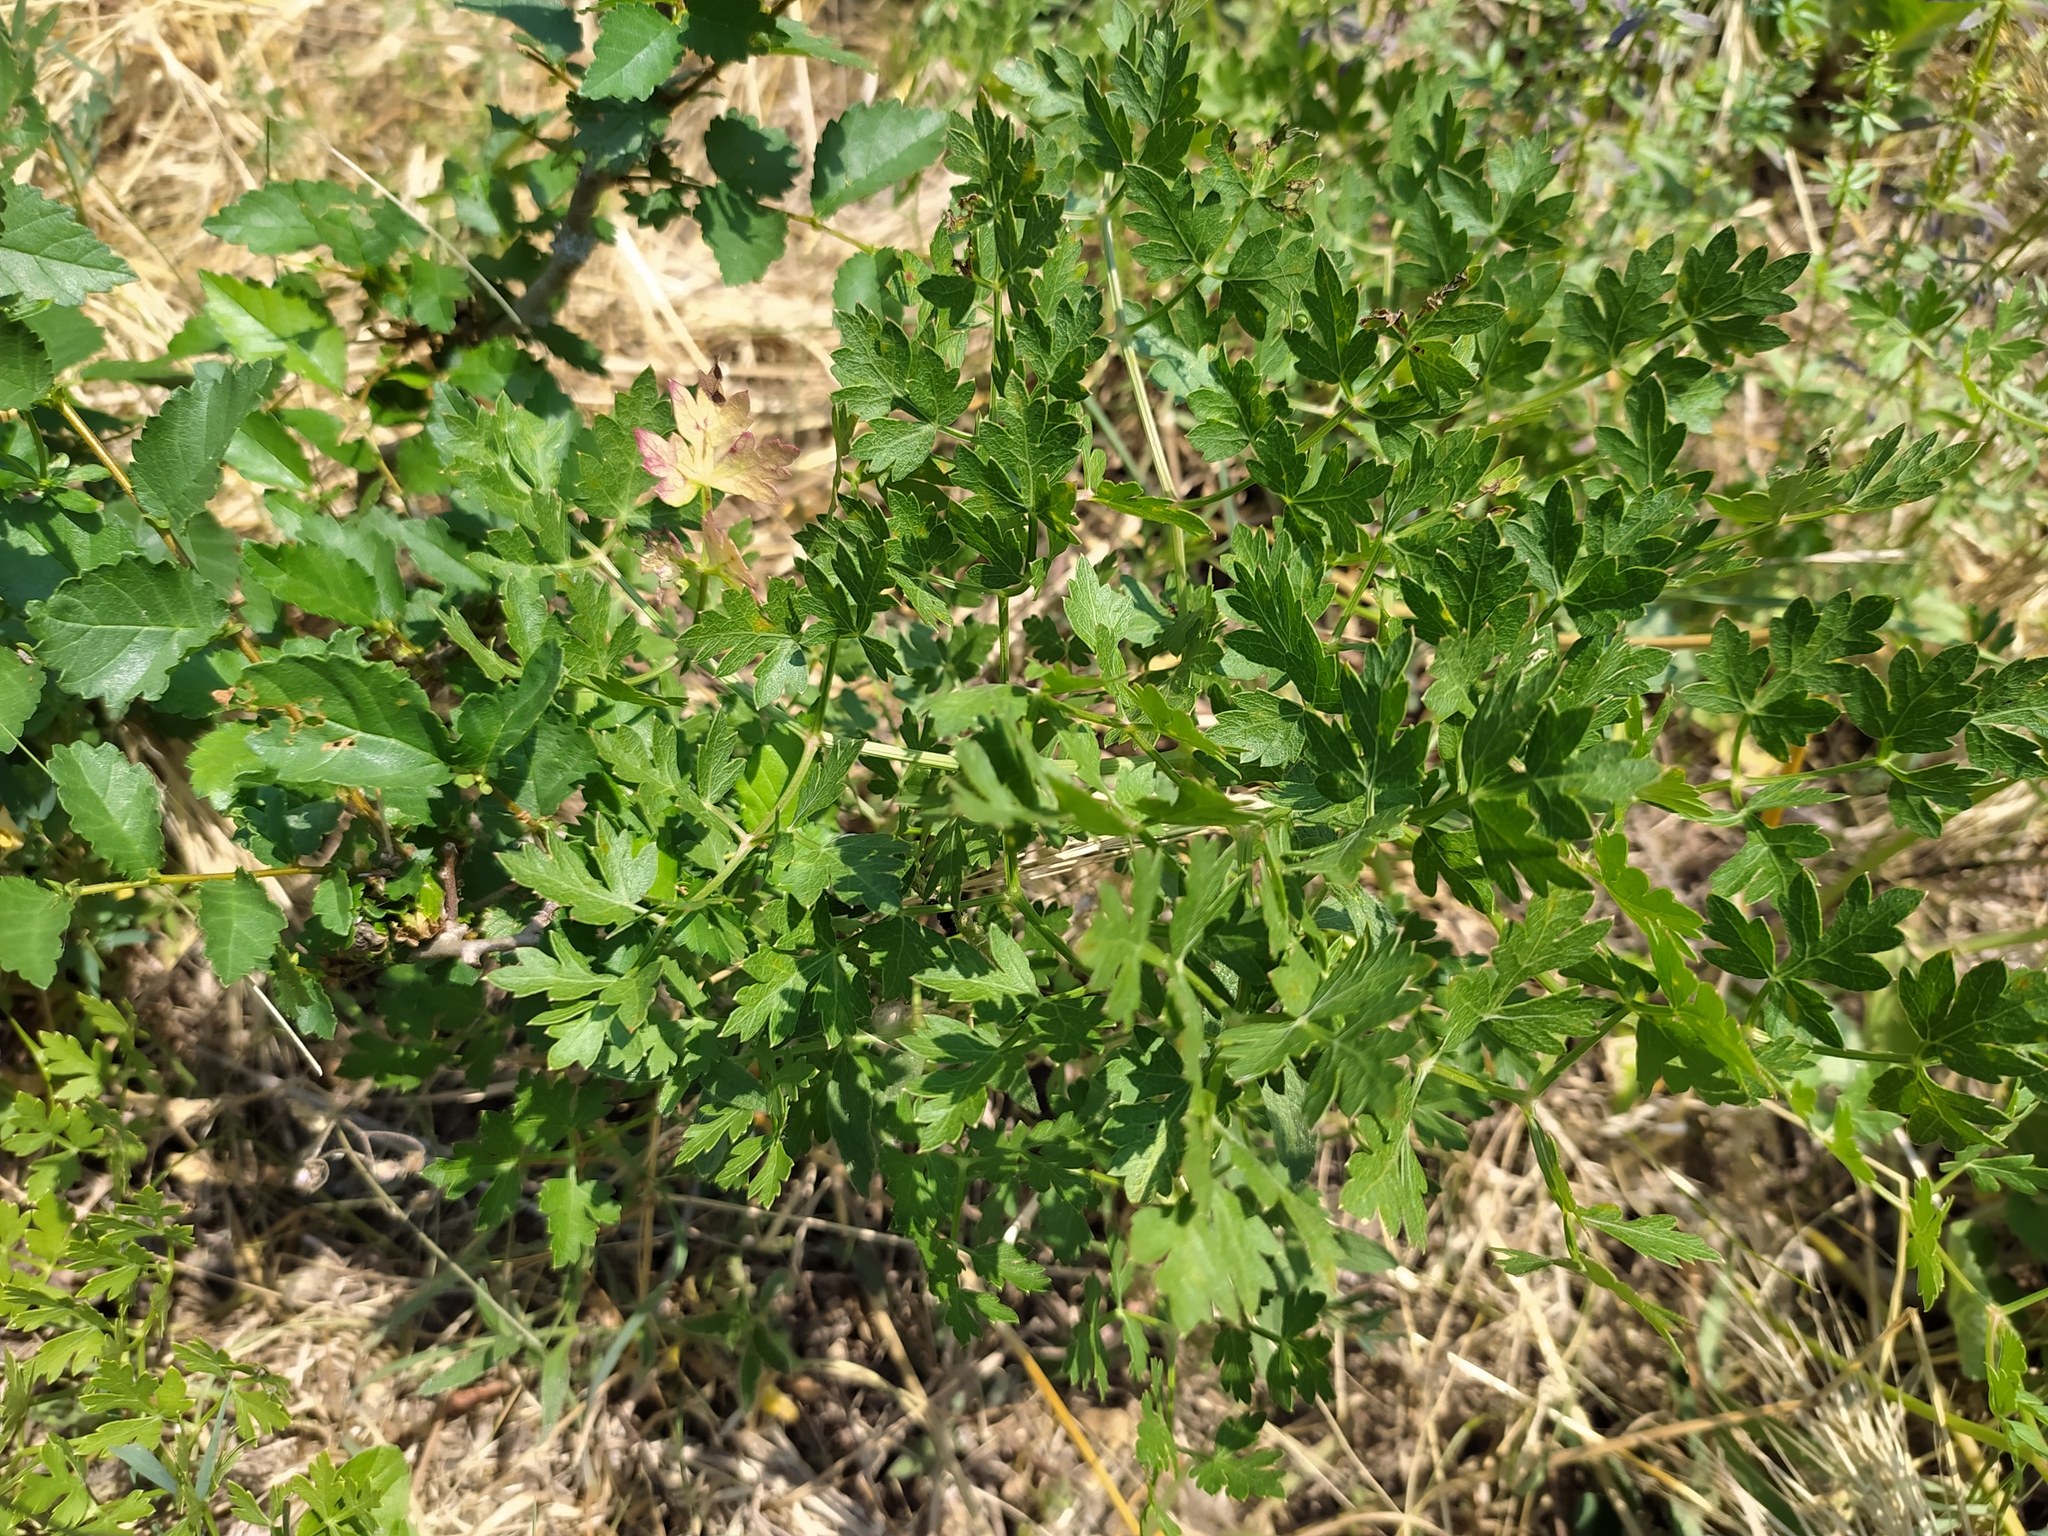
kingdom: Plantae
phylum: Tracheophyta
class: Magnoliopsida
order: Apiales
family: Apiaceae
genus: Cervaria
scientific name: Cervaria rivini
